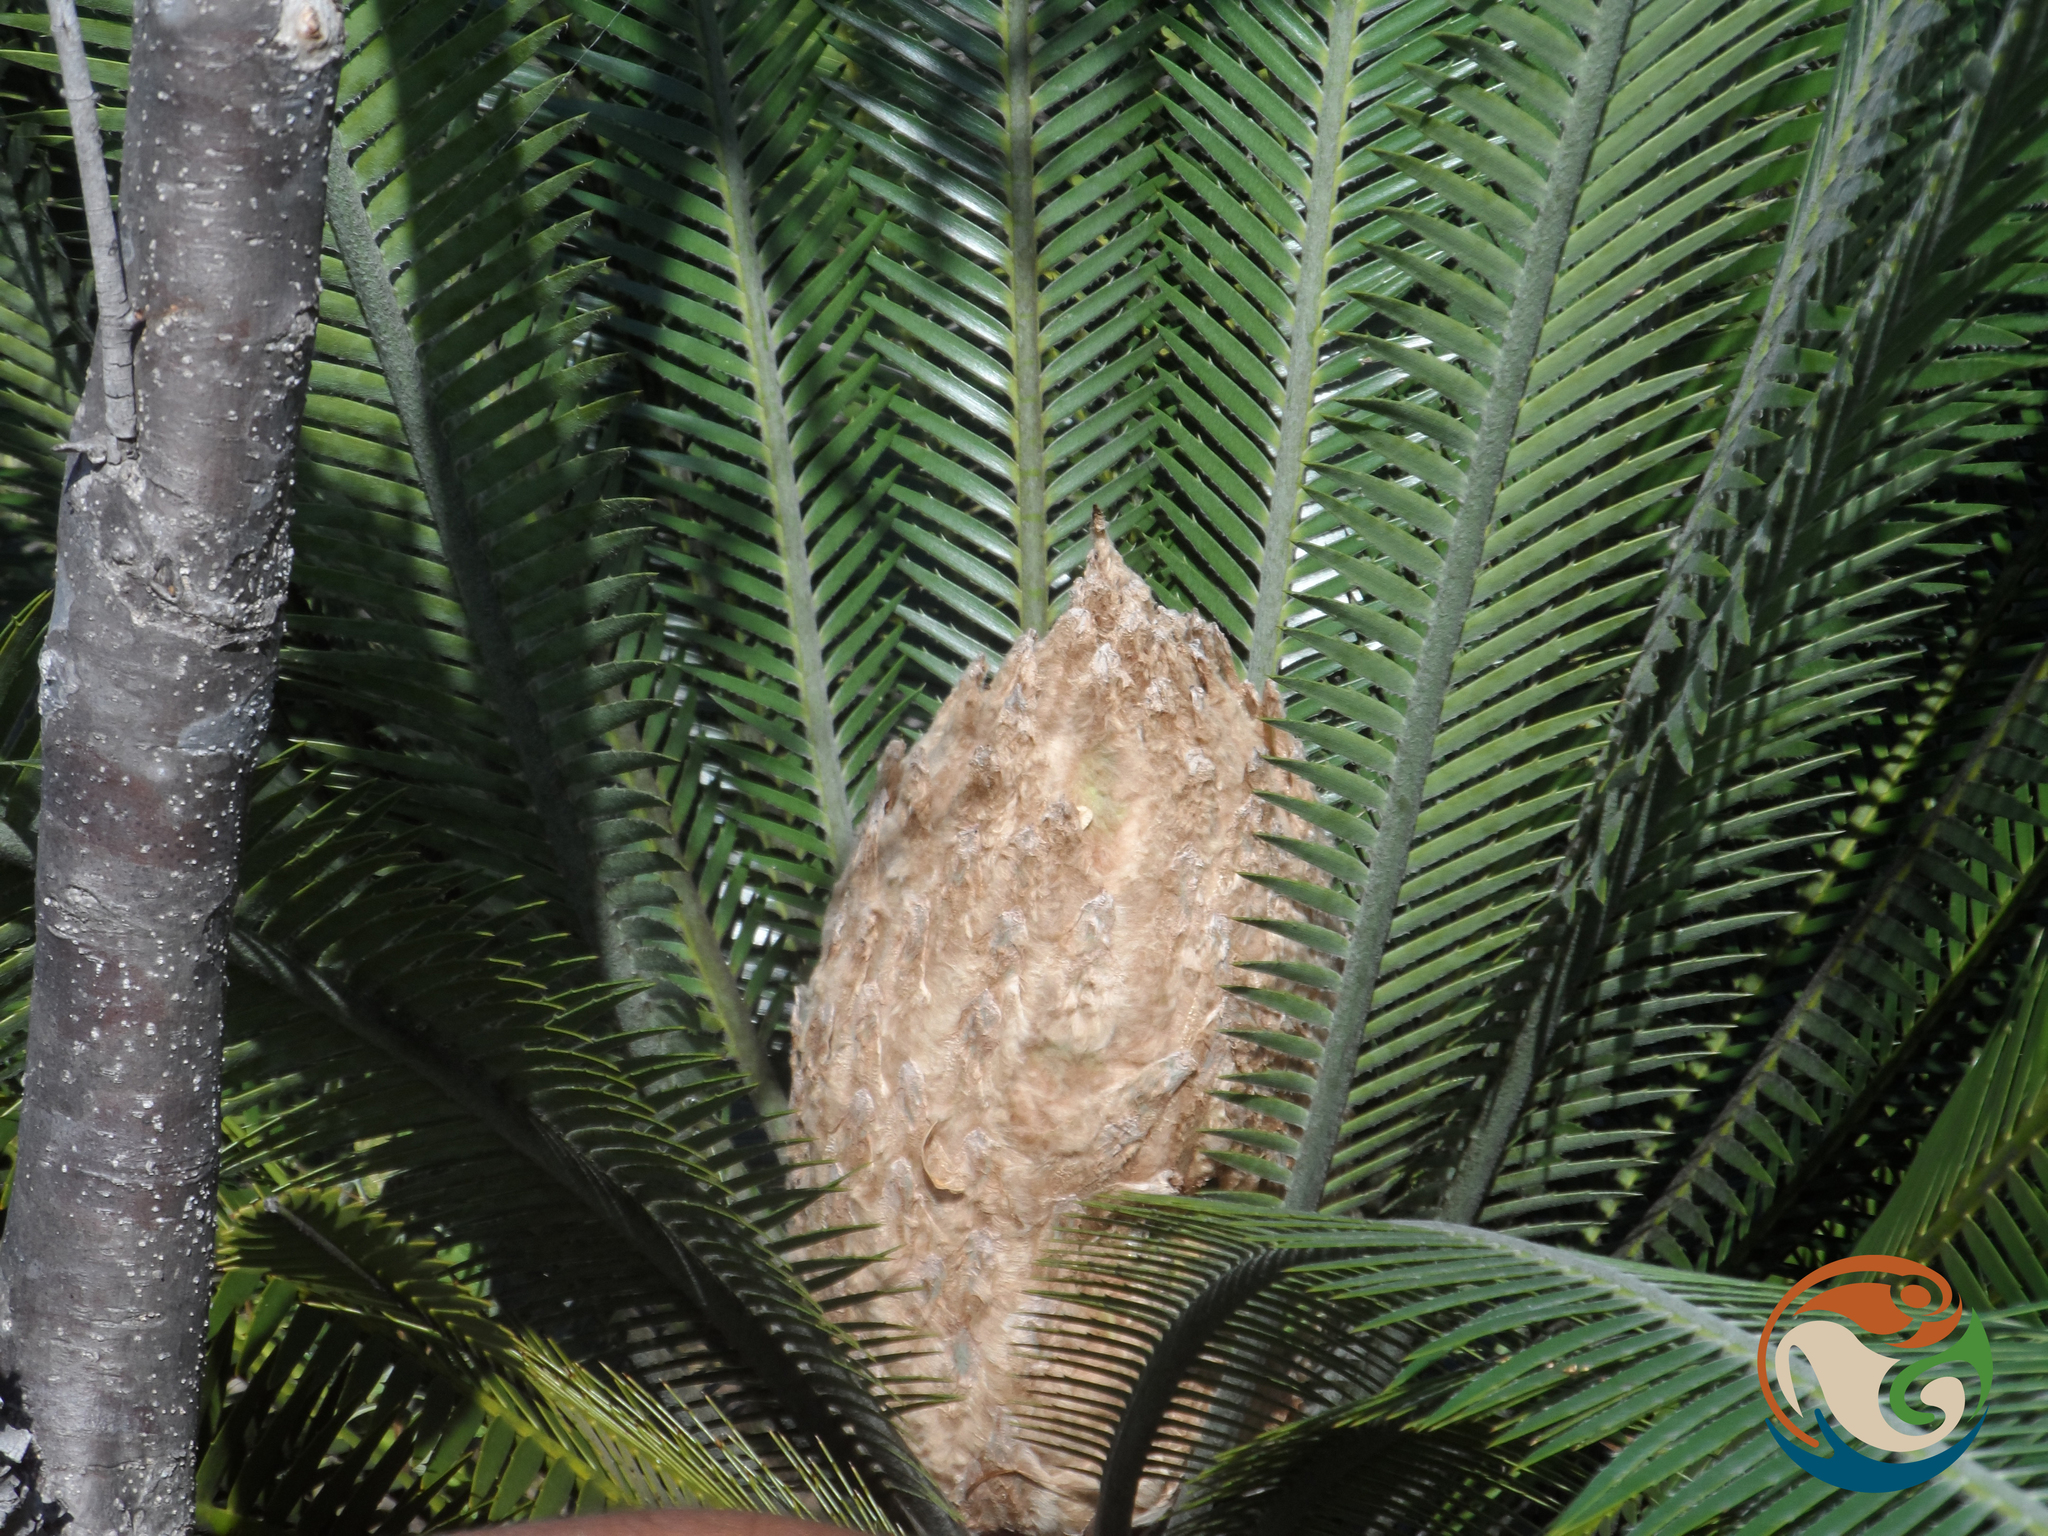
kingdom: Plantae
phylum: Tracheophyta
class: Cycadopsida
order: Cycadales
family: Zamiaceae
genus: Dioon
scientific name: Dioon planifolium
